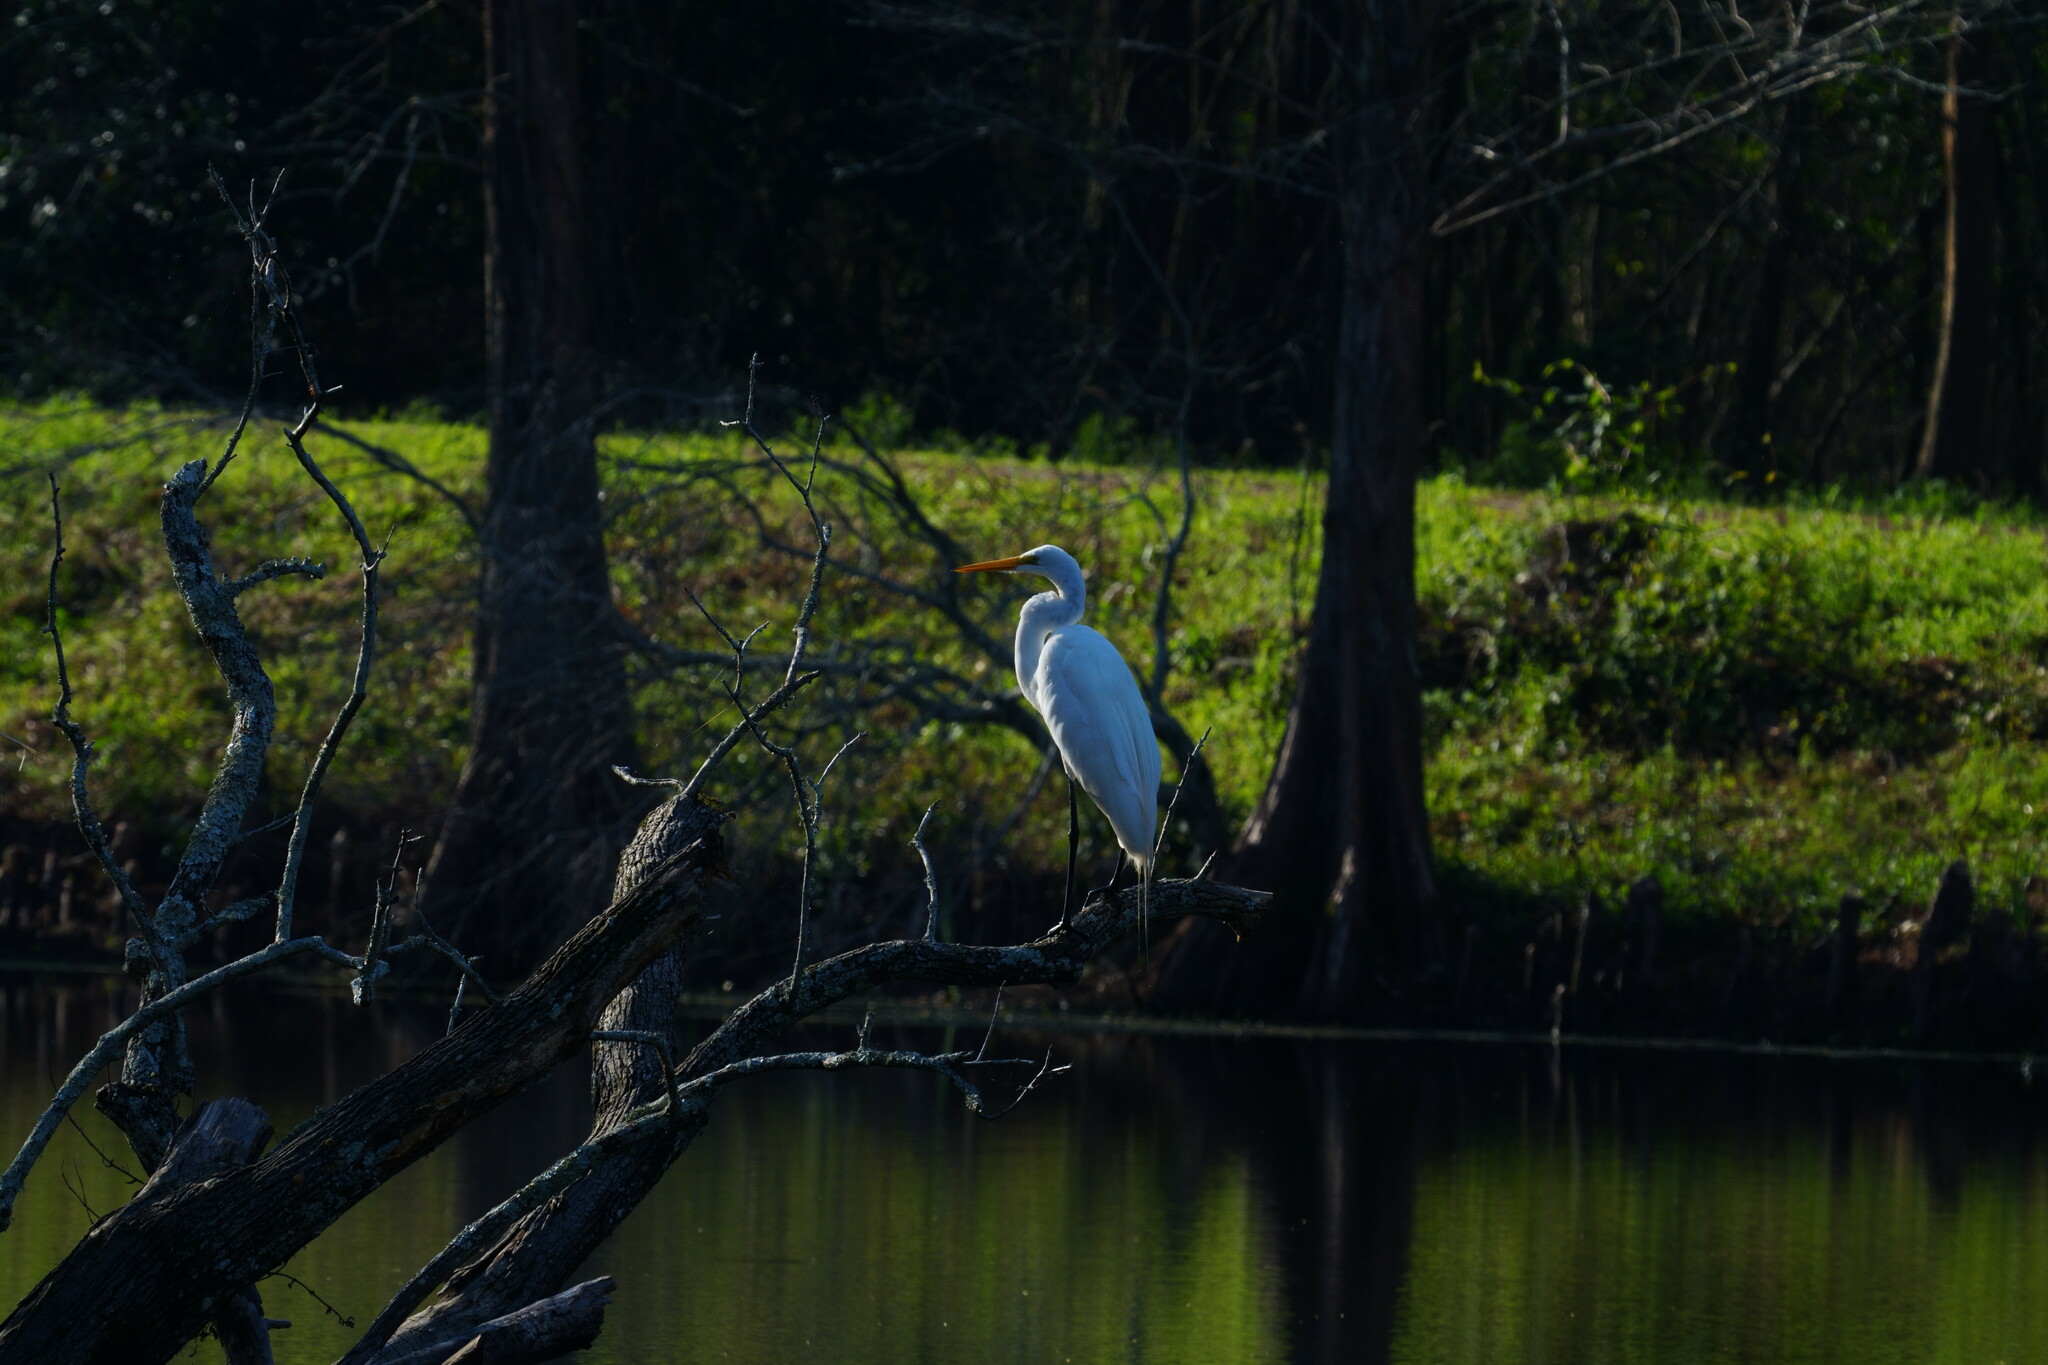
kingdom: Animalia
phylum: Chordata
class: Aves
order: Pelecaniformes
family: Ardeidae
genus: Ardea
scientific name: Ardea alba
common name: Great egret
